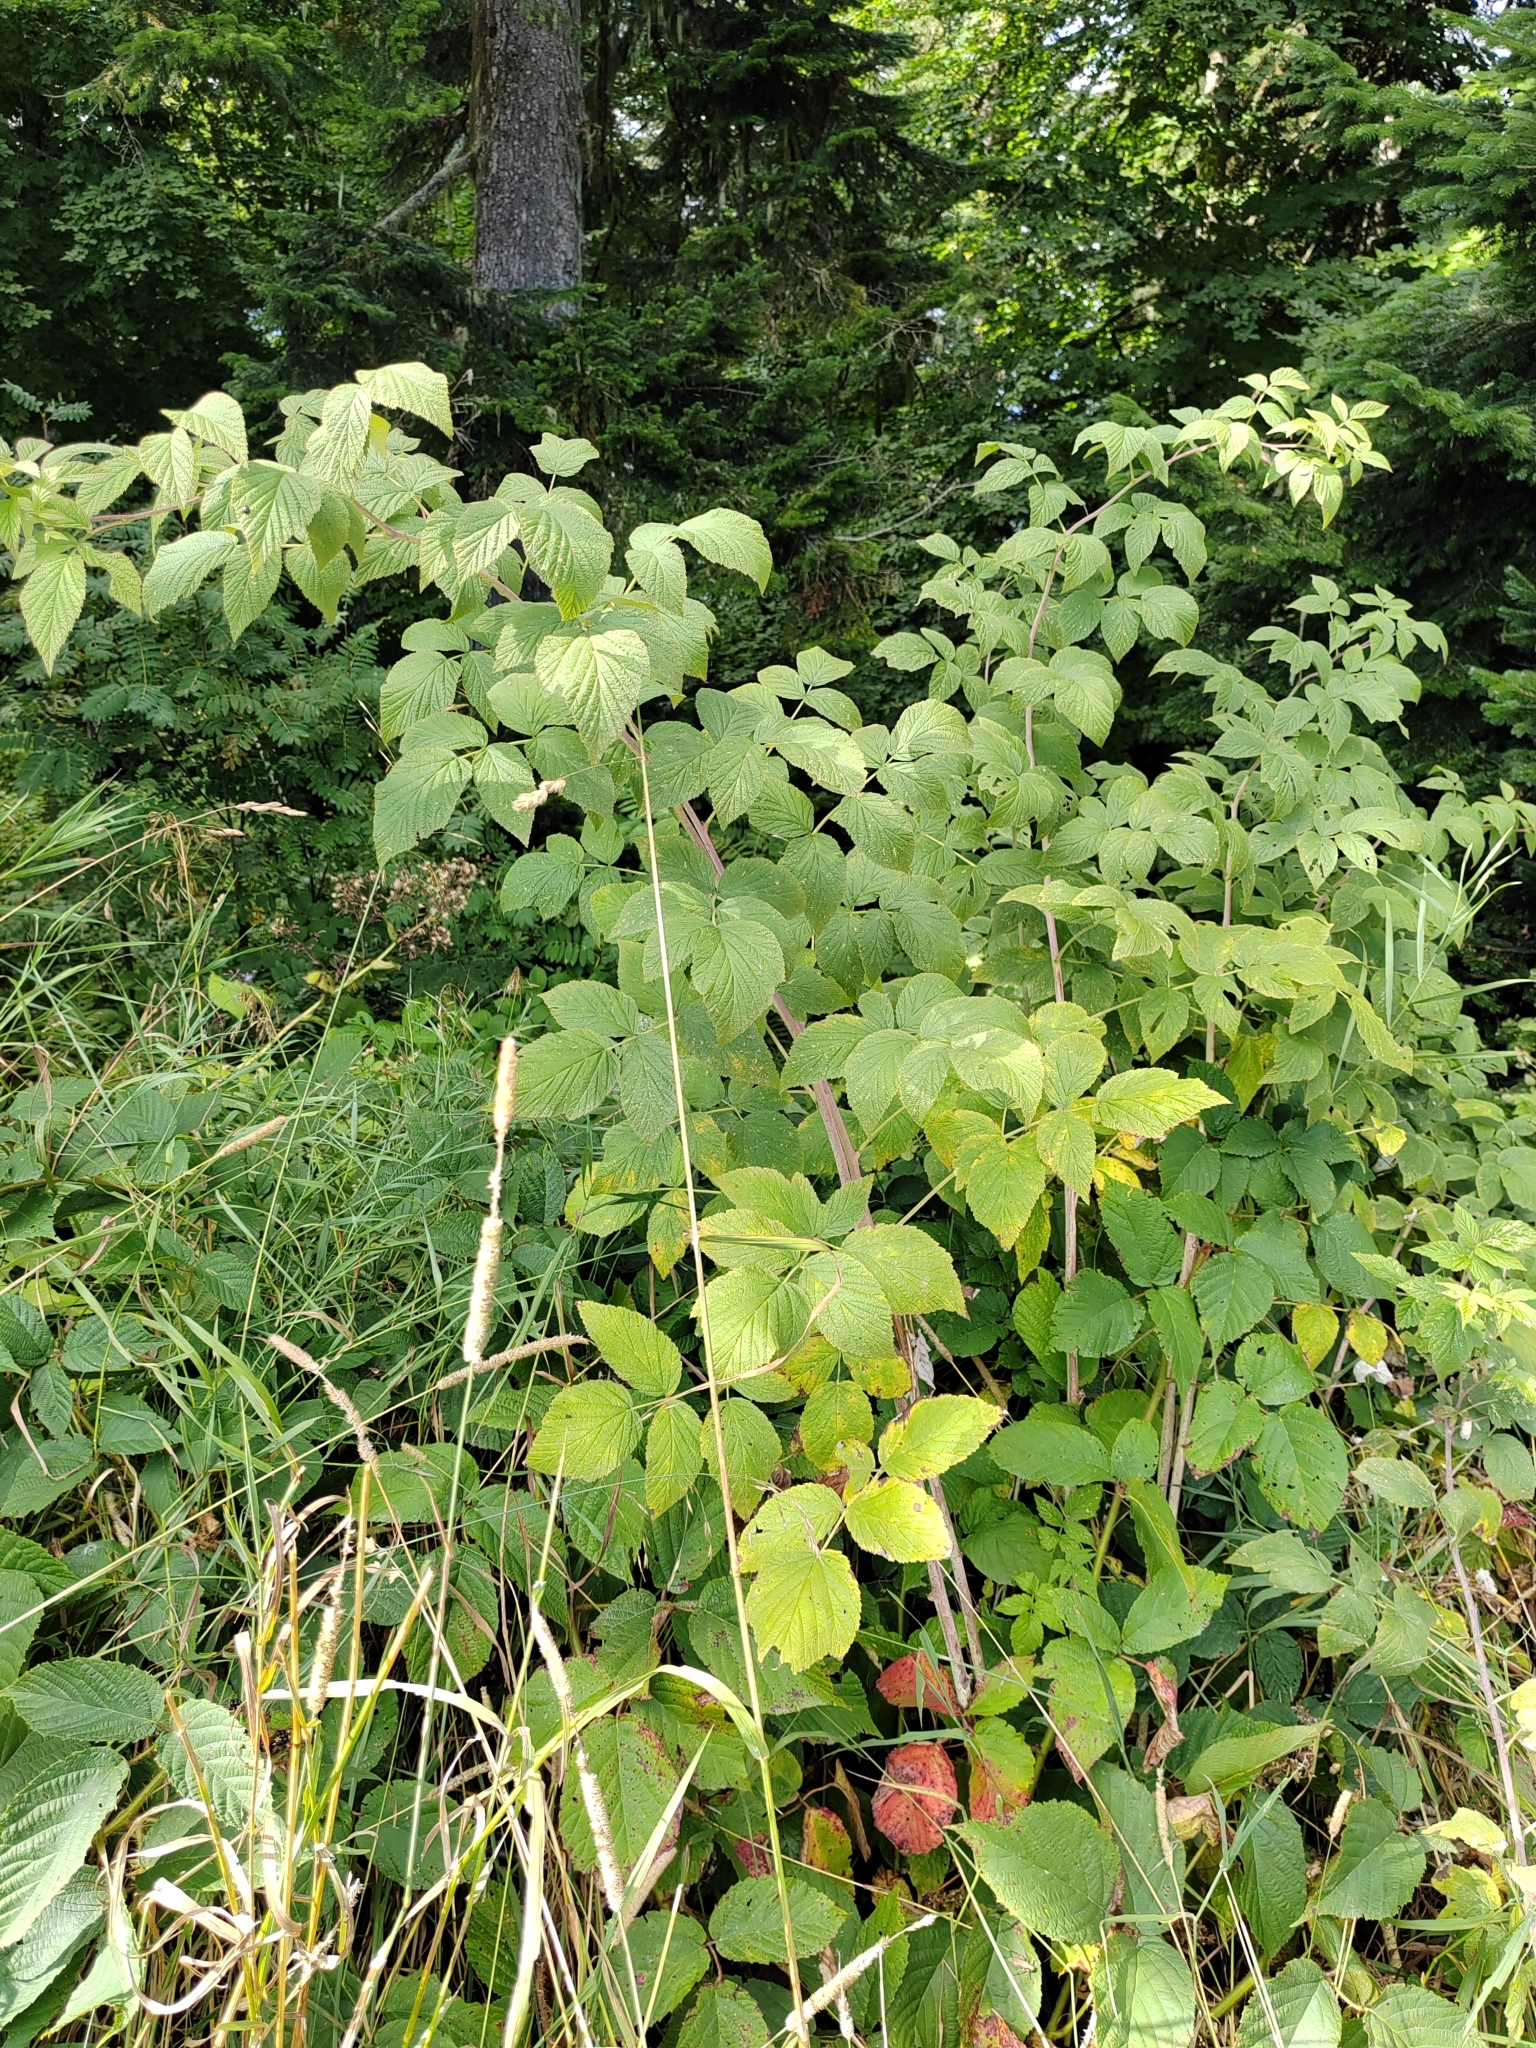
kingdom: Plantae
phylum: Tracheophyta
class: Magnoliopsida
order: Rosales
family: Rosaceae
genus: Rubus
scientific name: Rubus idaeus
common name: Raspberry
